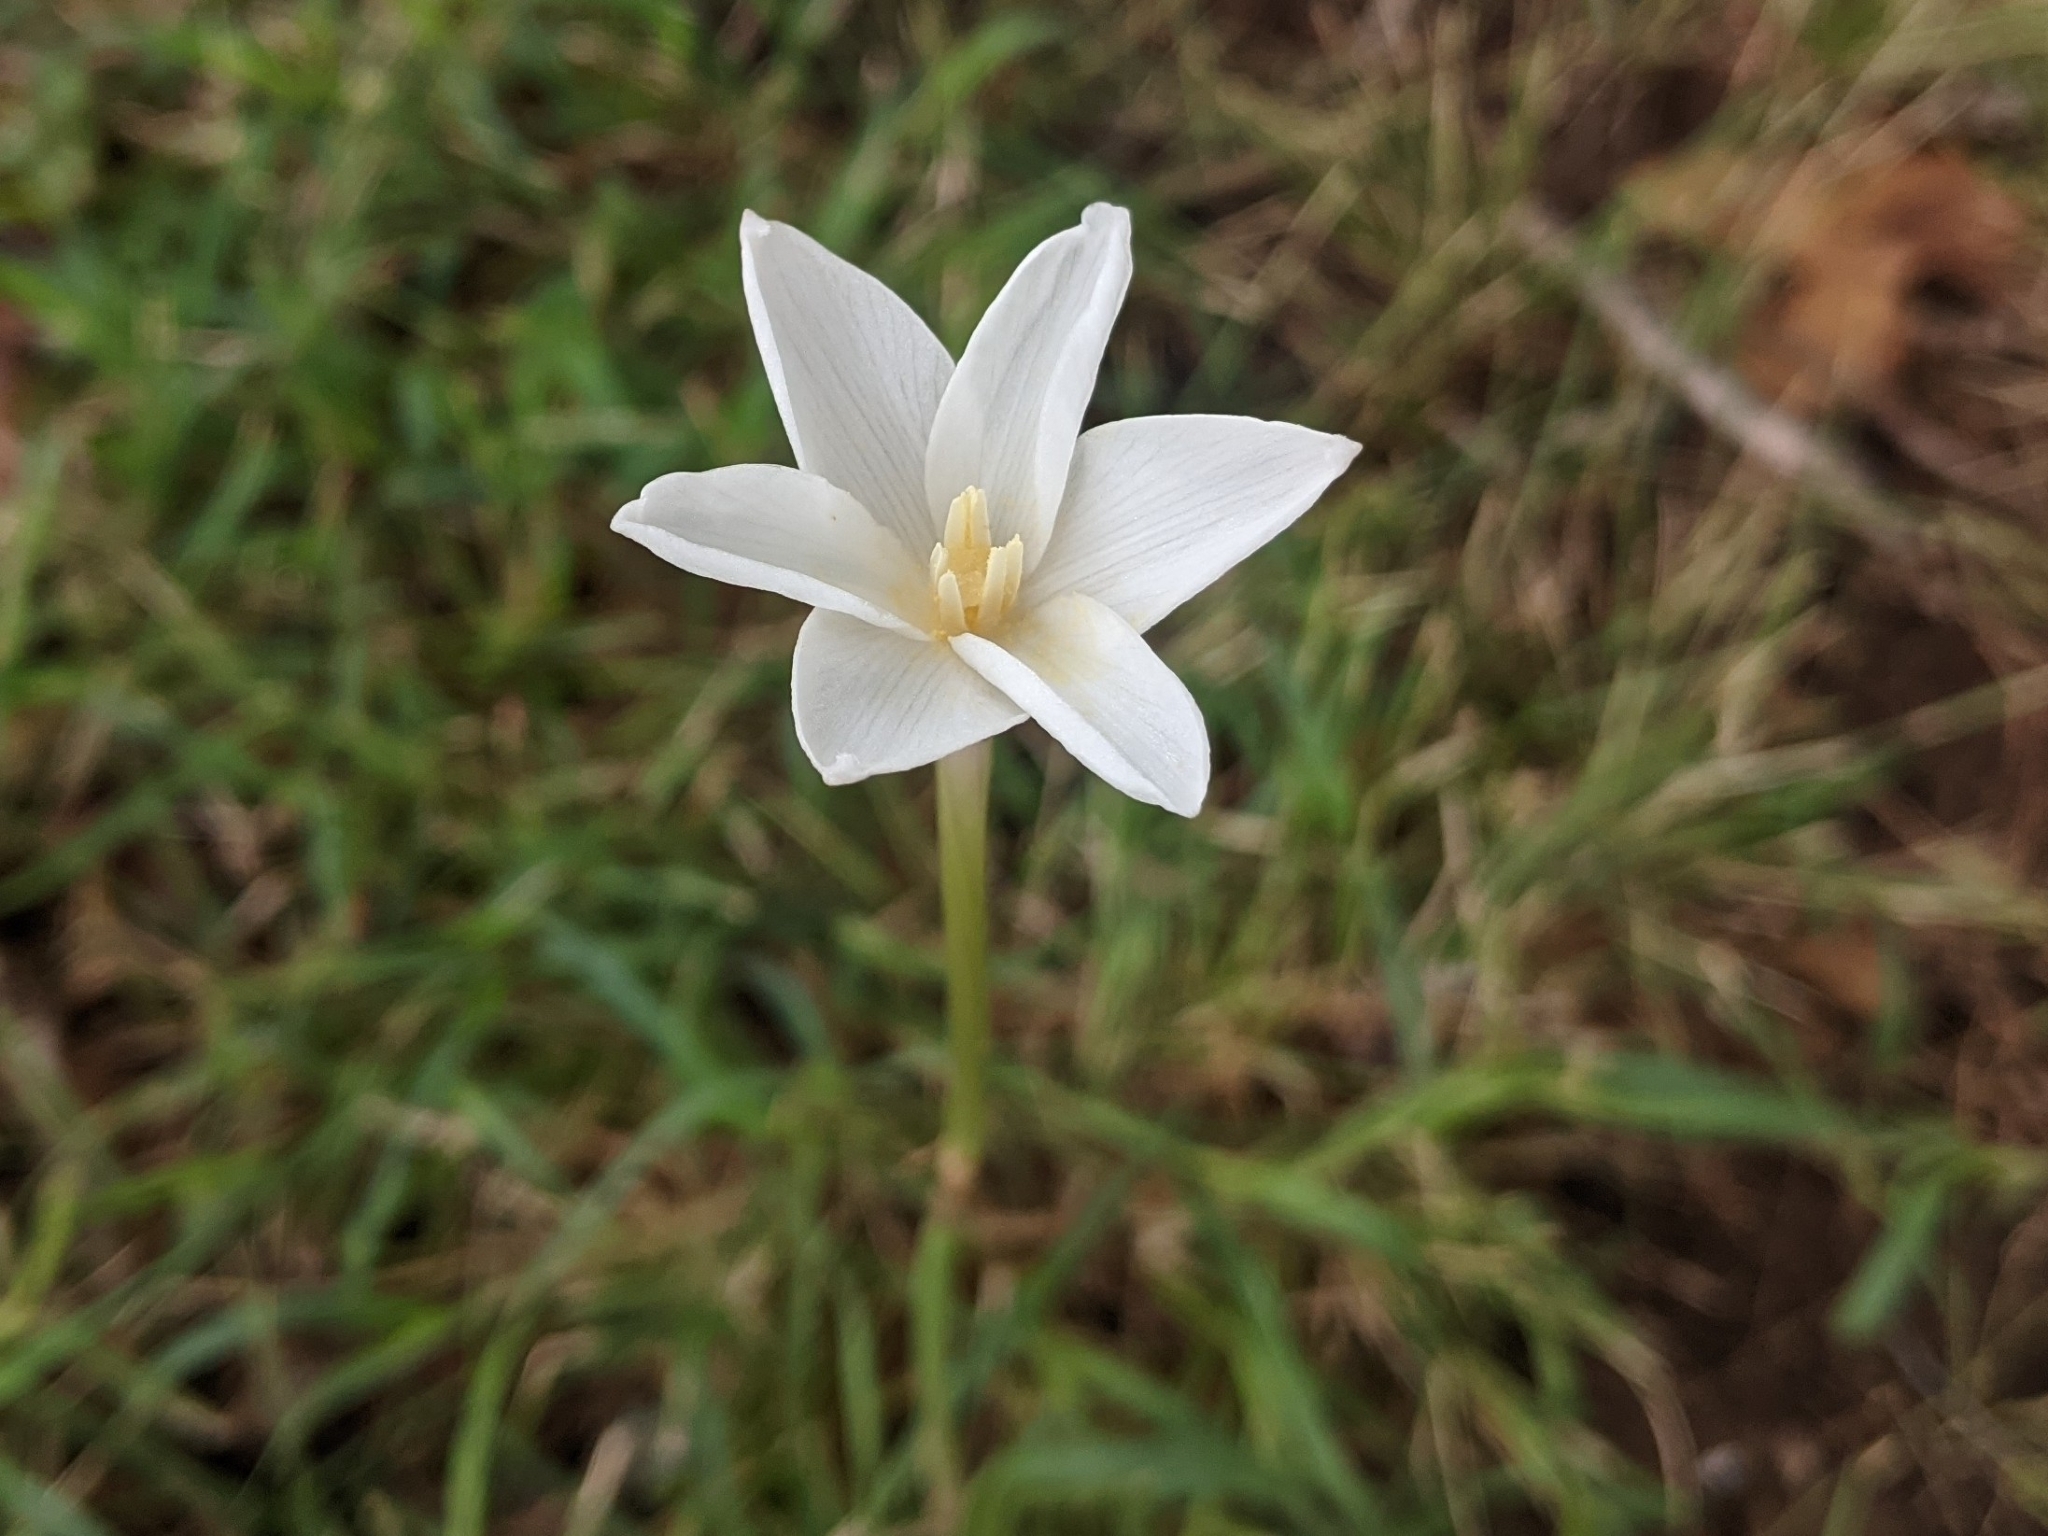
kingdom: Plantae
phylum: Tracheophyta
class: Liliopsida
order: Asparagales
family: Amaryllidaceae
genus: Zephyranthes
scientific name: Zephyranthes chlorosolen
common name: Evening rain-lily
